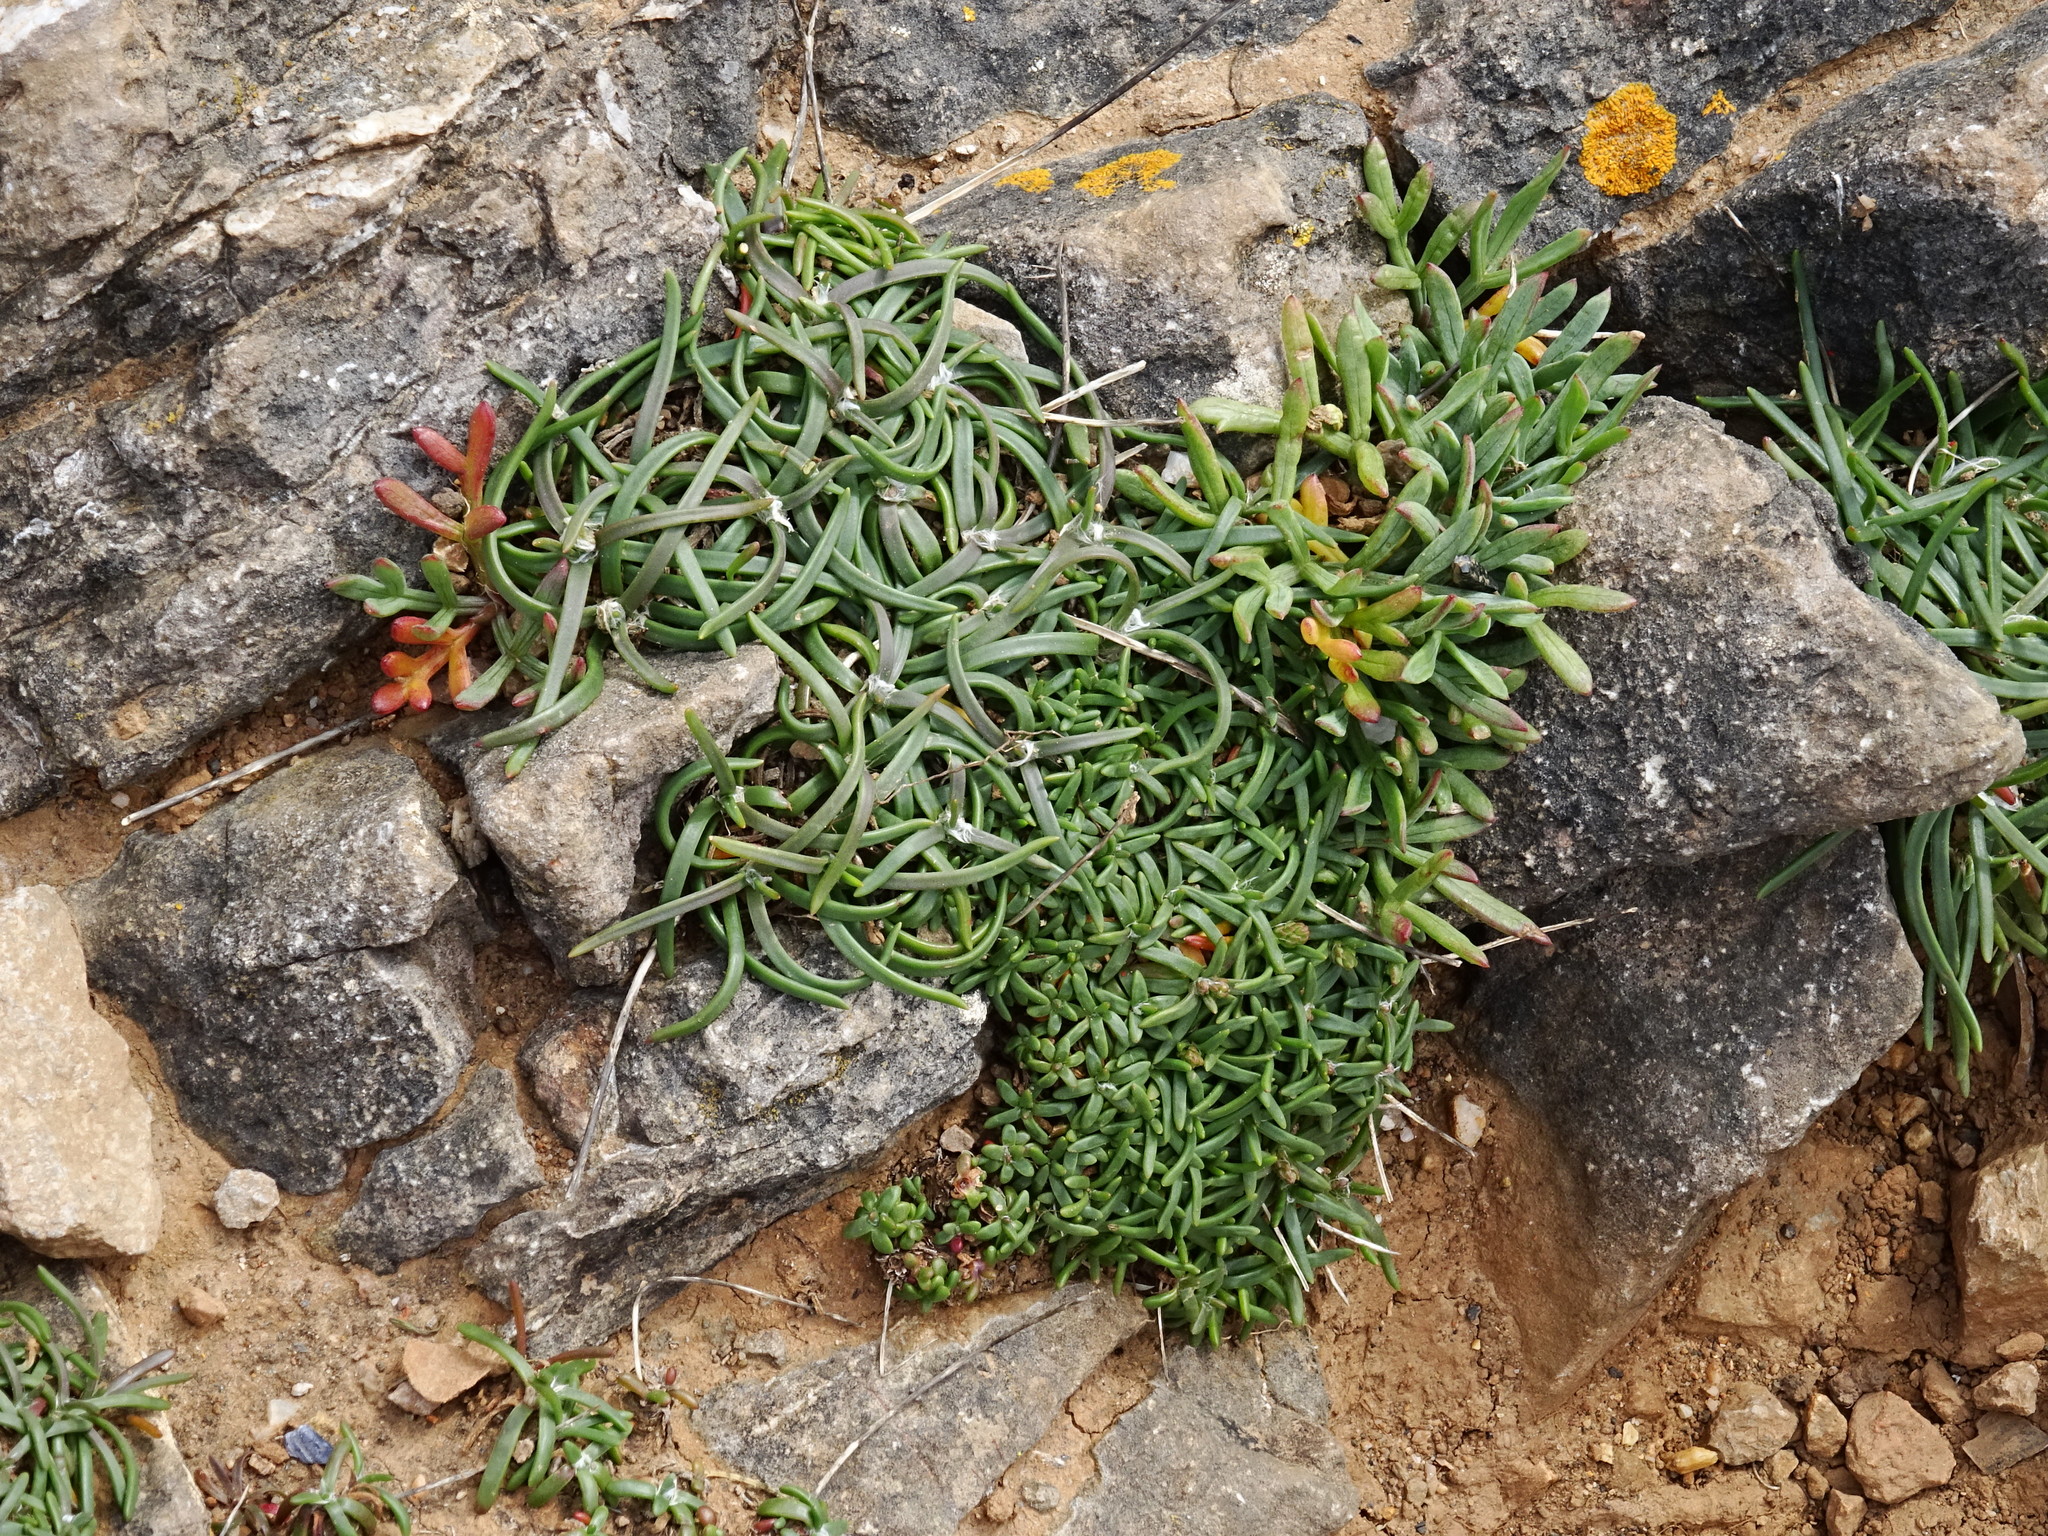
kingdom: Plantae
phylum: Tracheophyta
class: Magnoliopsida
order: Apiales
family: Apiaceae
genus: Crithmum
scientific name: Crithmum maritimum
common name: Rock samphire
